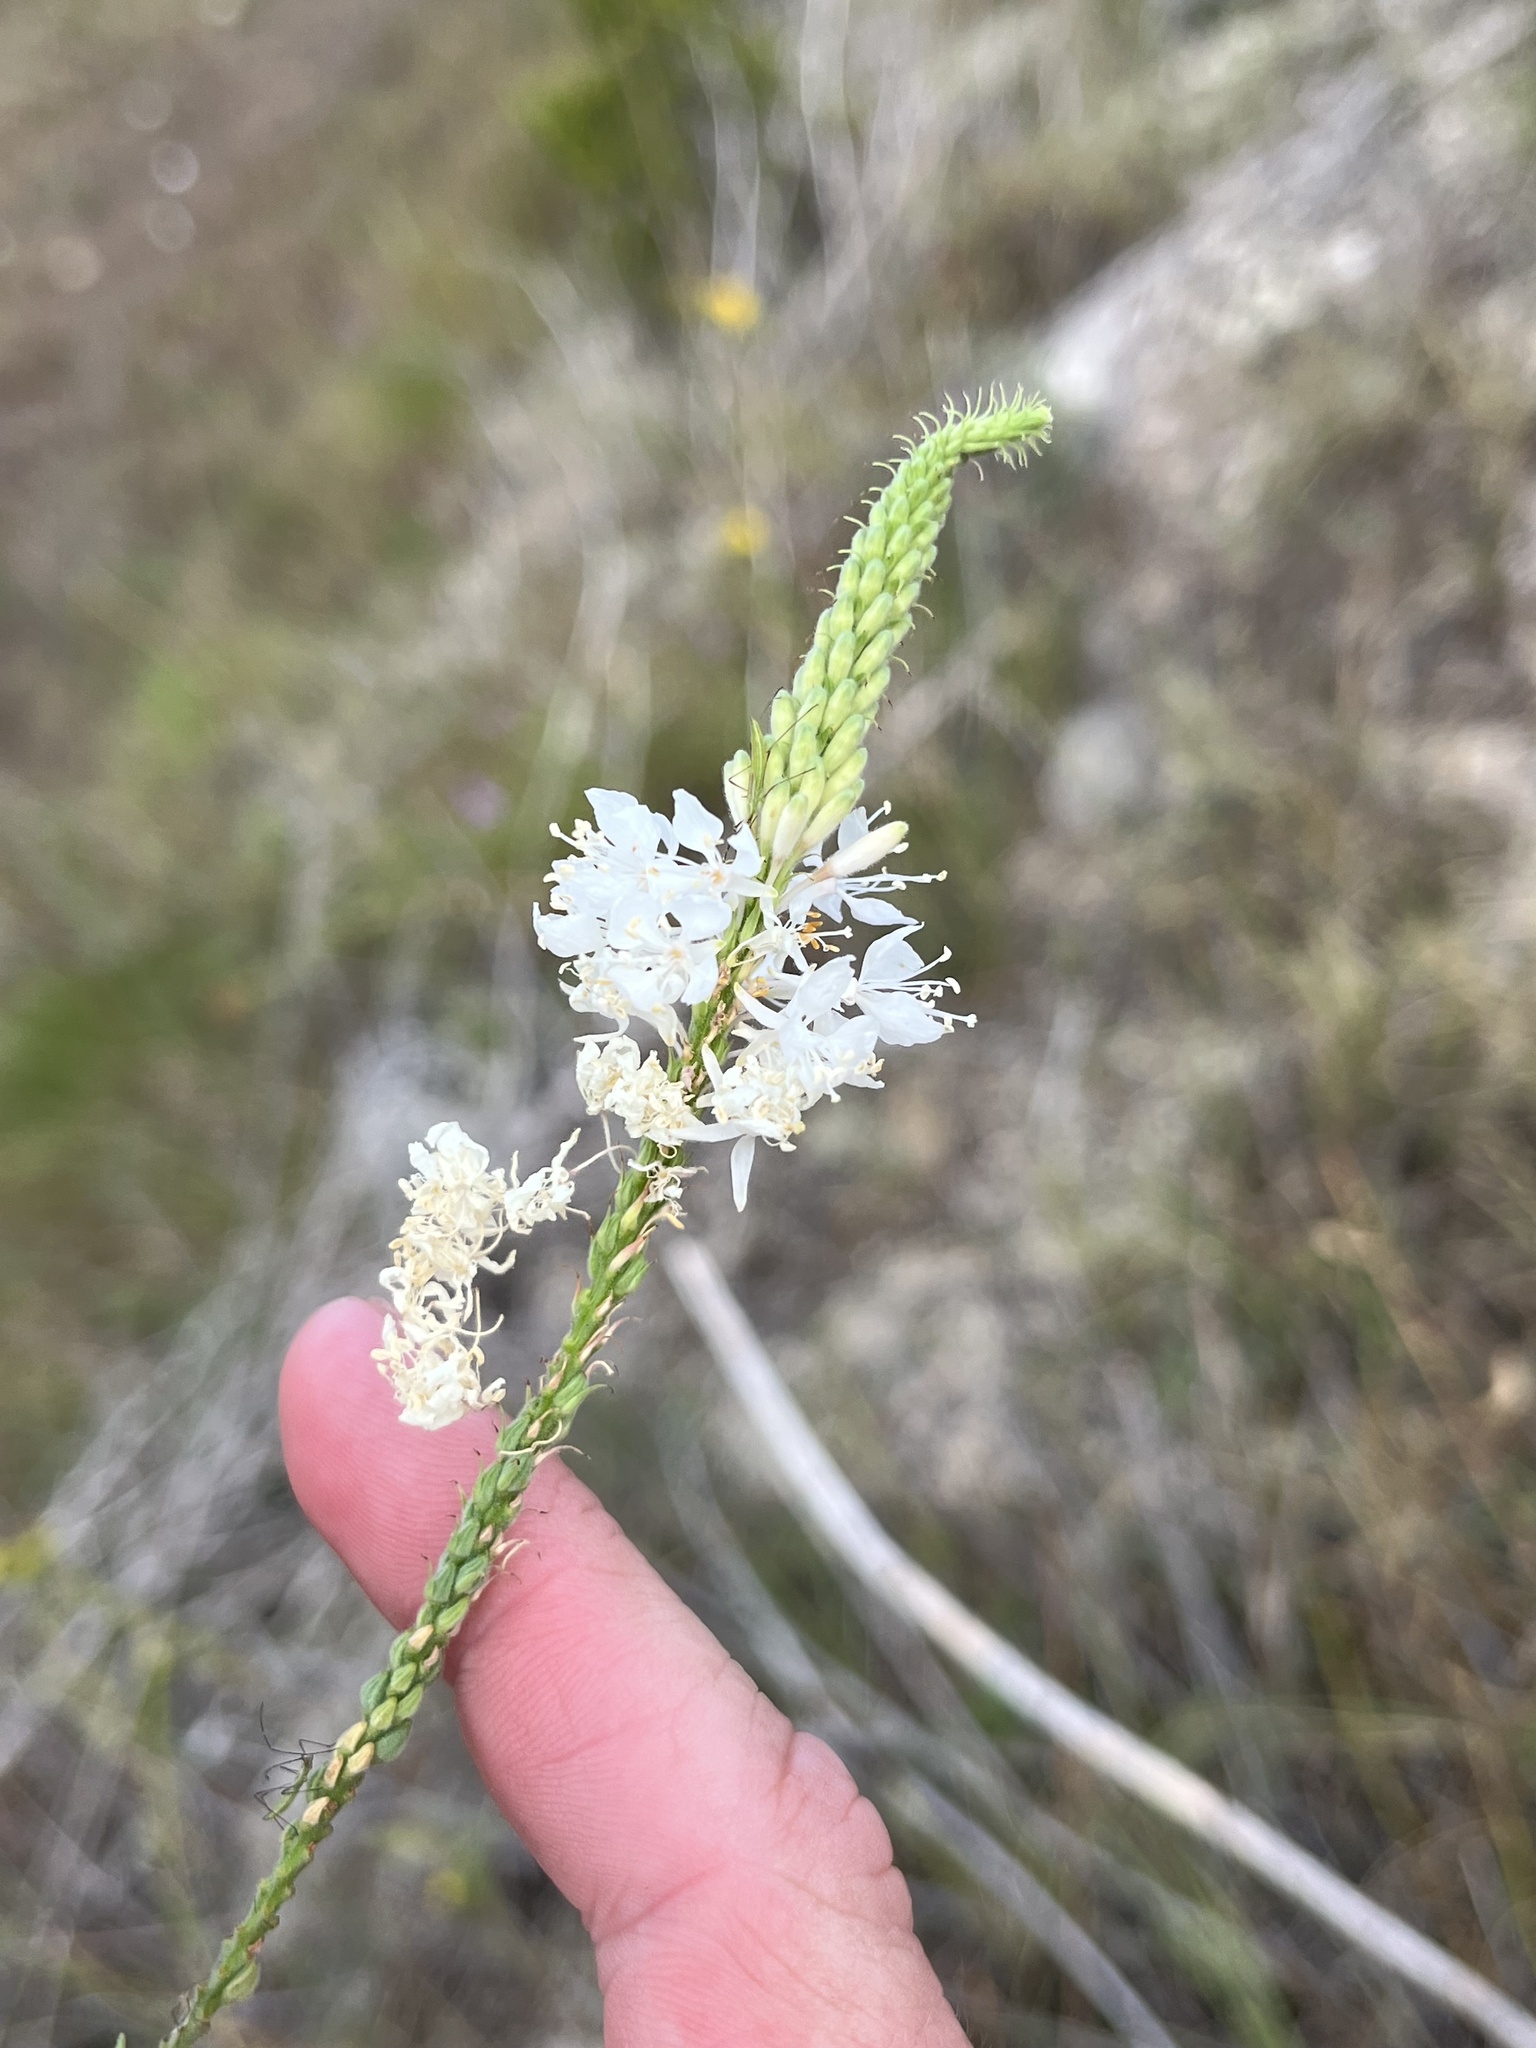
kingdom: Plantae
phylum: Tracheophyta
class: Magnoliopsida
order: Myrtales
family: Onagraceae
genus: Oenothera
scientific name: Oenothera glaucifolia
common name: False gaura
